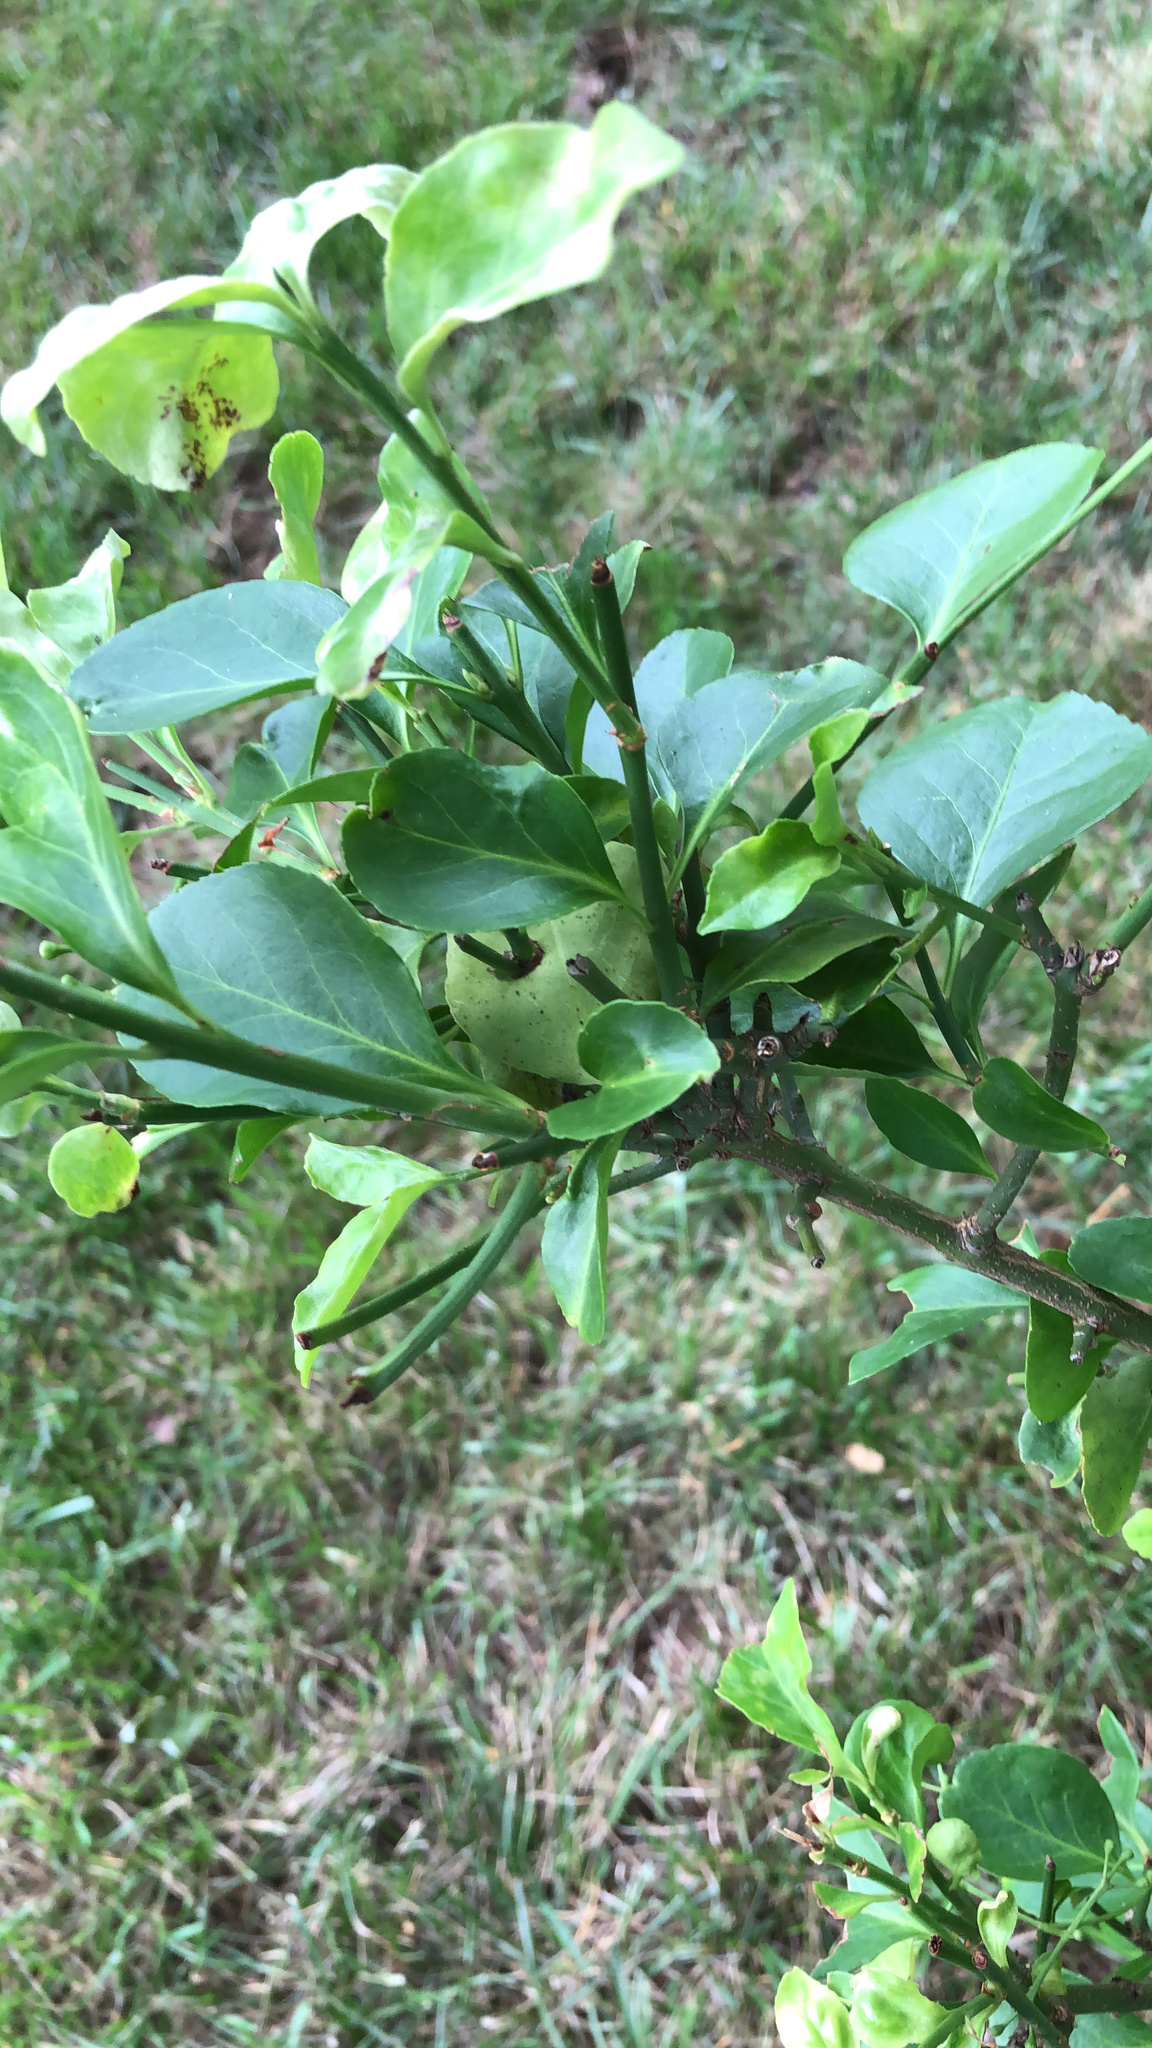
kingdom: Plantae
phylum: Tracheophyta
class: Magnoliopsida
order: Celastrales
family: Celastraceae
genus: Euonymus
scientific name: Euonymus japonicus
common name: Japanese spindletree
